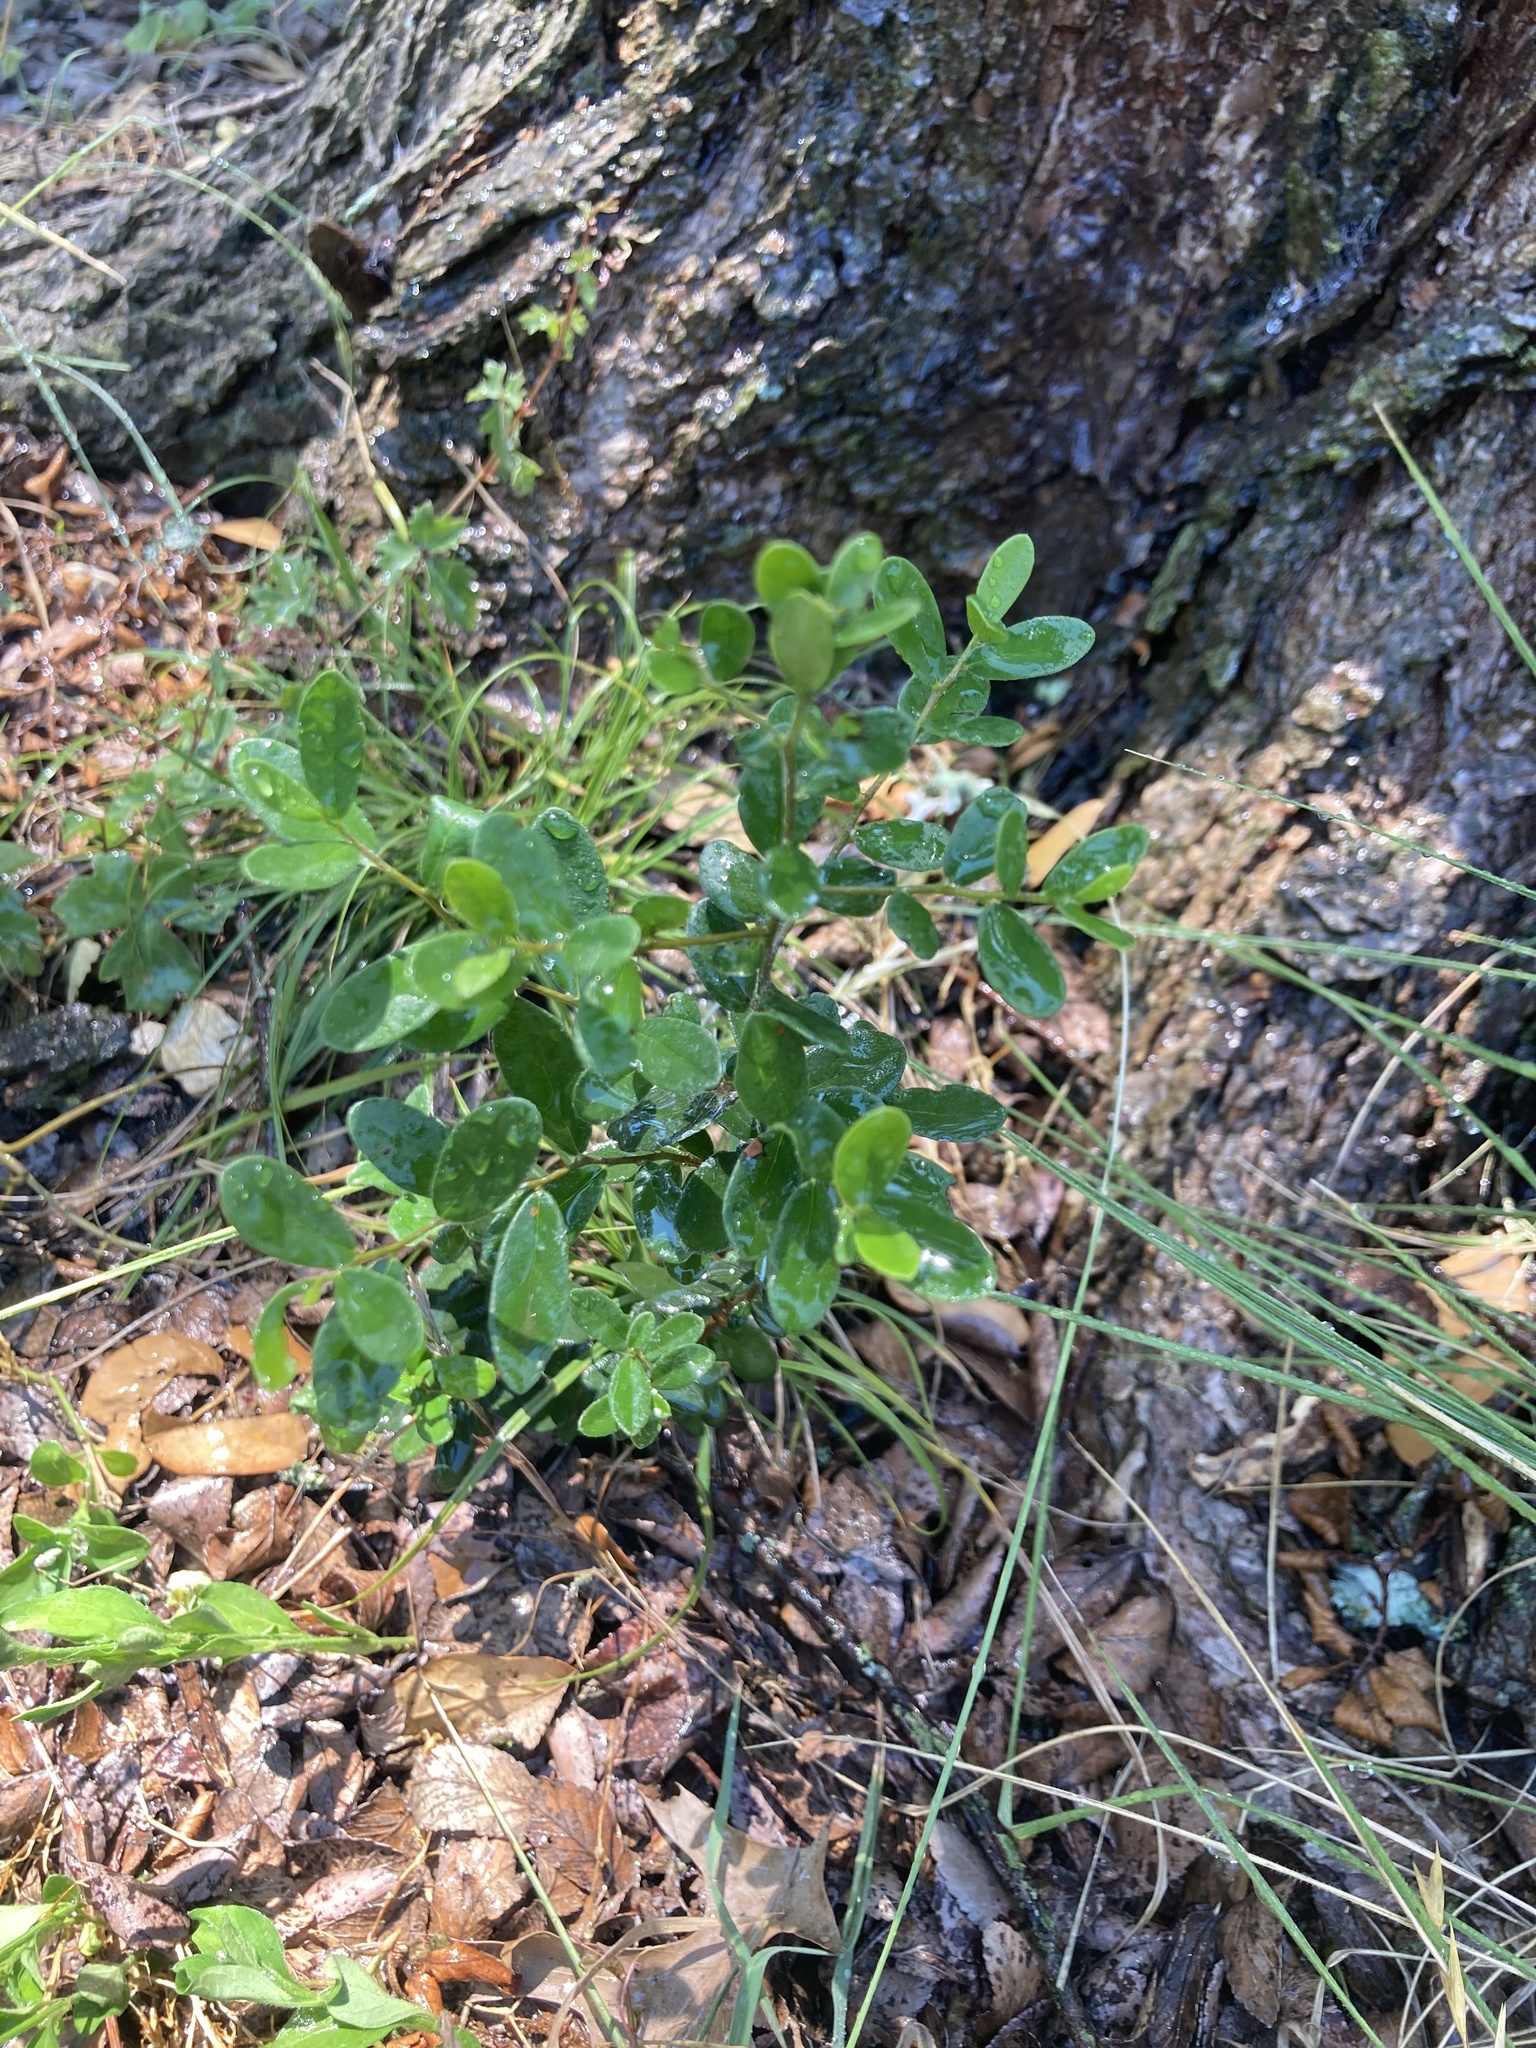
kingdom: Plantae
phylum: Tracheophyta
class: Magnoliopsida
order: Ericales
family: Ebenaceae
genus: Diospyros
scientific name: Diospyros texana
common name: Texas persimmon
